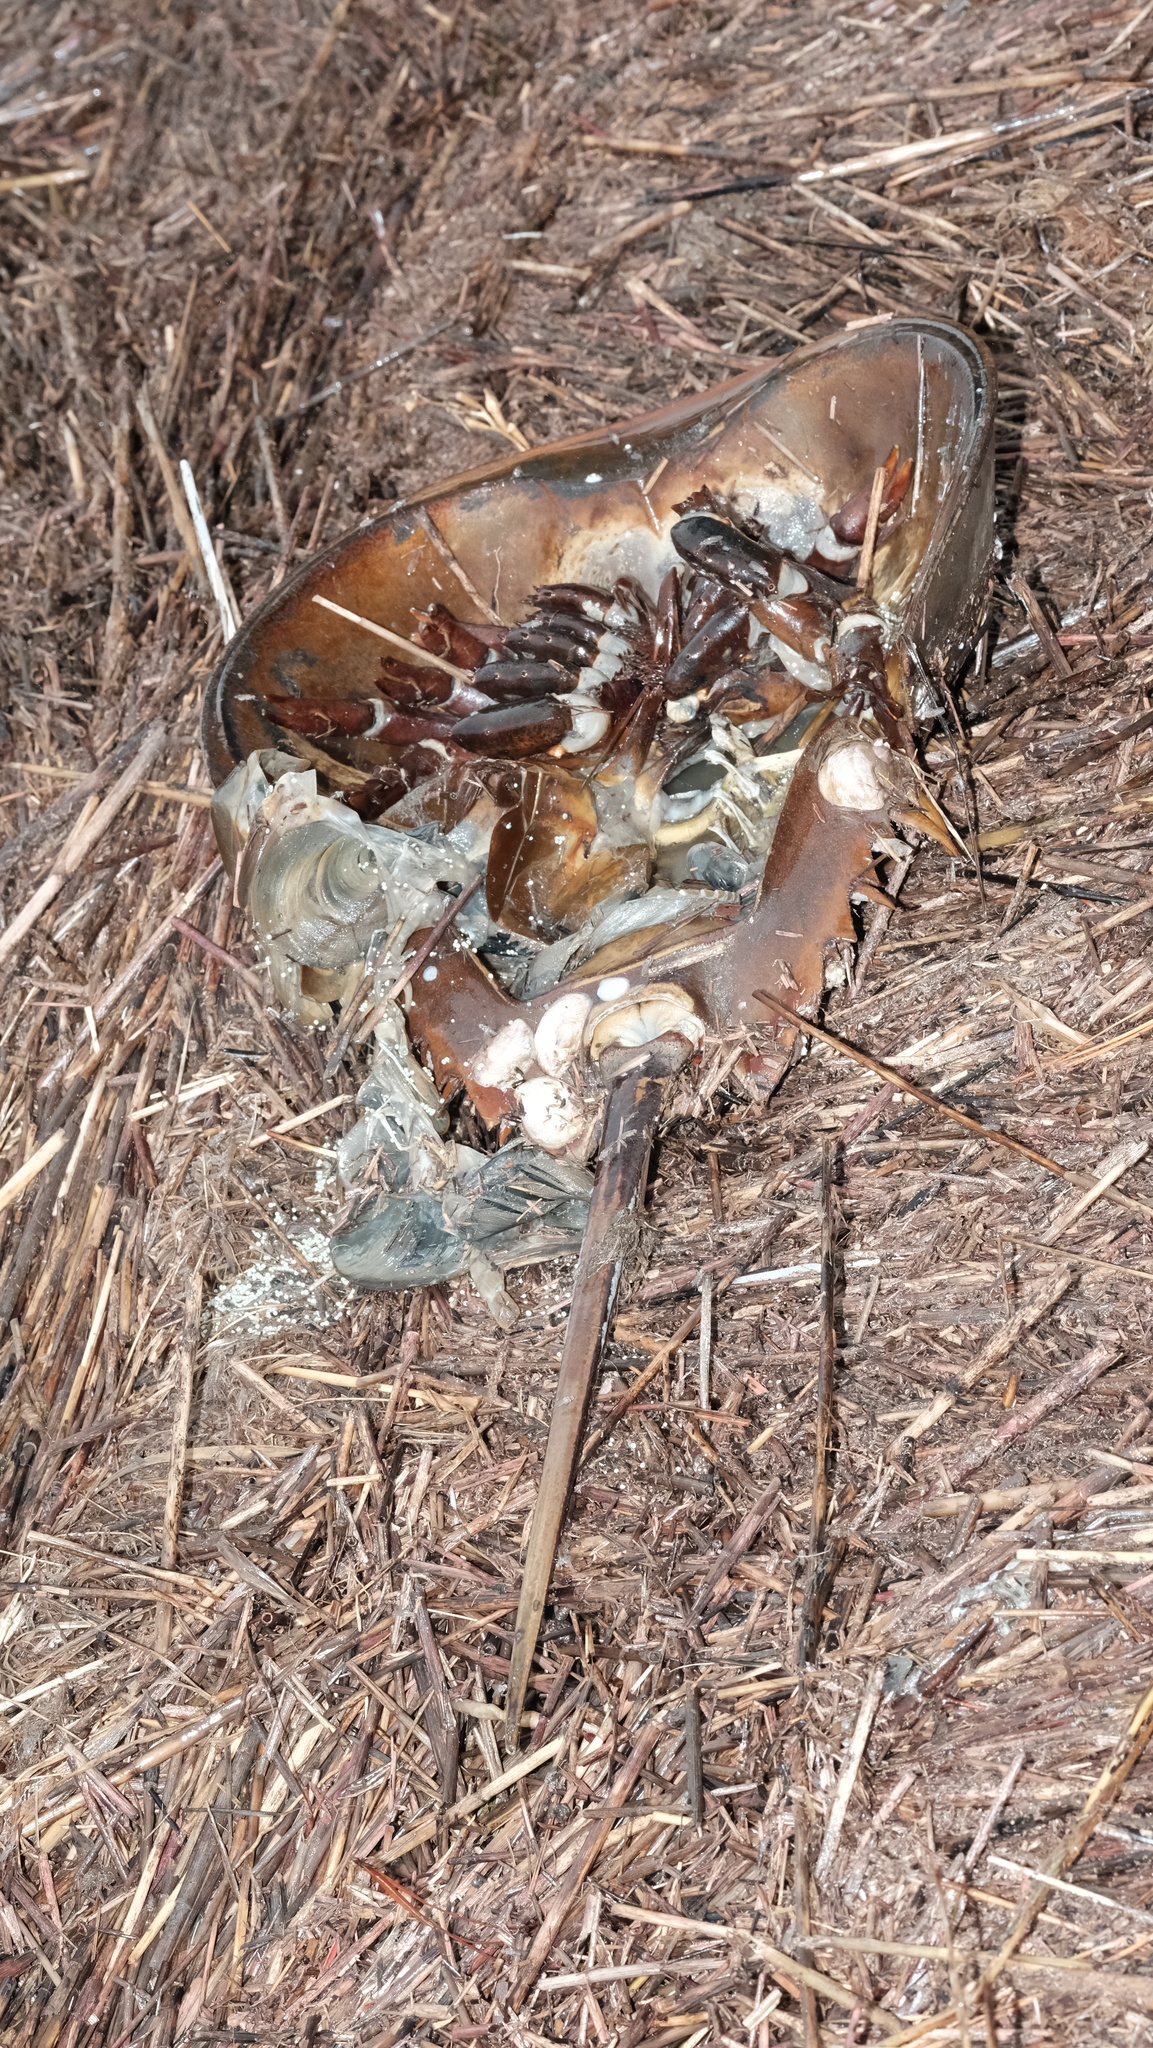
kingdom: Animalia
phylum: Arthropoda
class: Merostomata
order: Xiphosurida
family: Limulidae
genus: Limulus
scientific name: Limulus polyphemus
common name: Horseshoe crab
